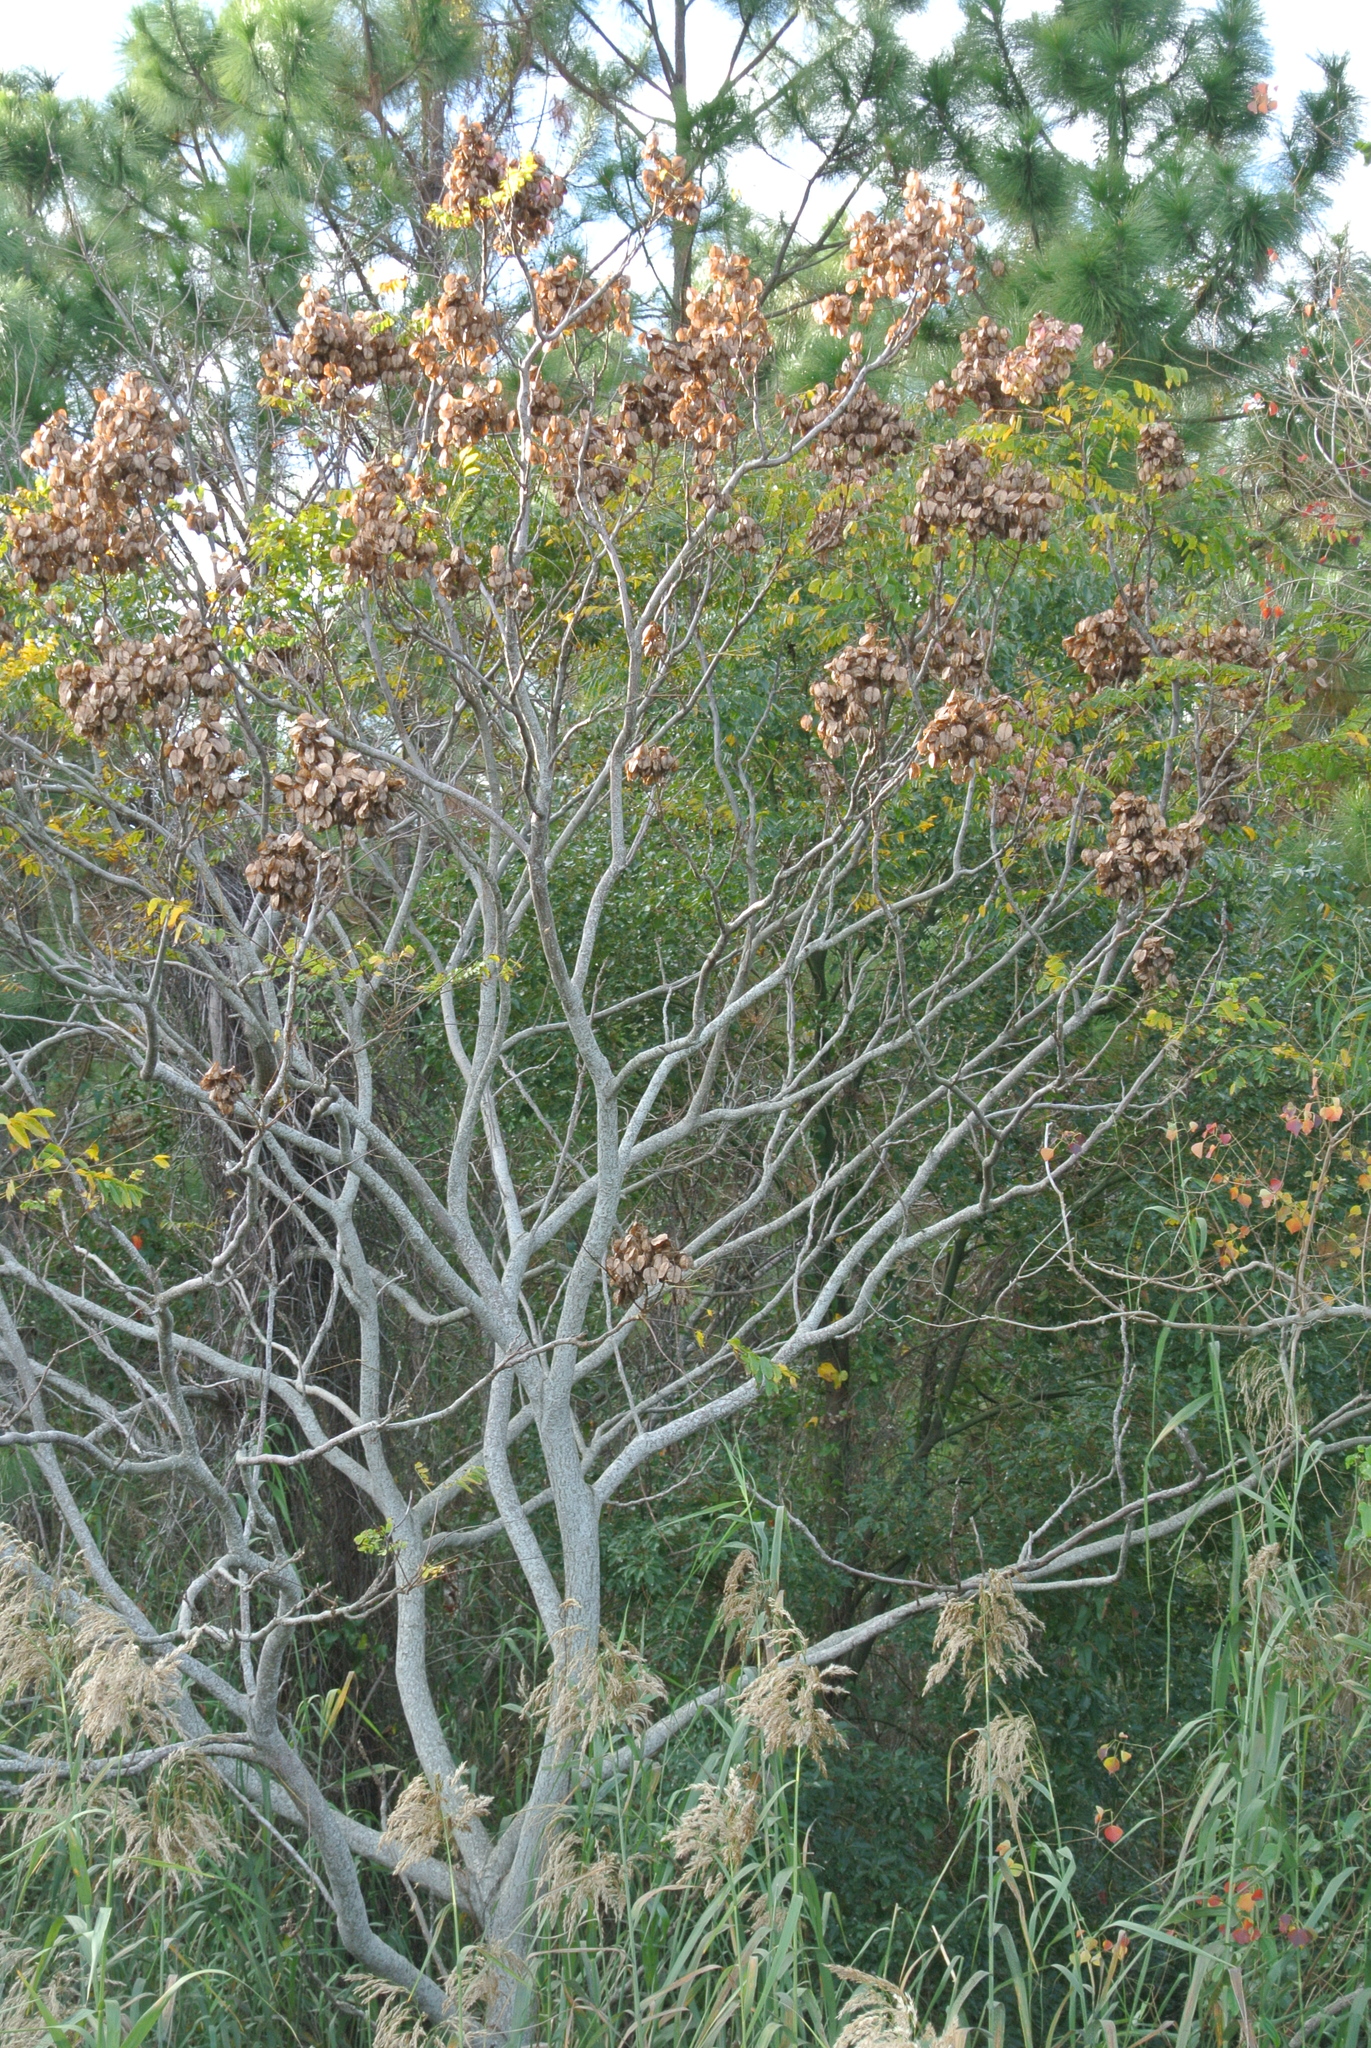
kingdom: Plantae
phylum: Tracheophyta
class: Magnoliopsida
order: Sapindales
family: Sapindaceae
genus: Koelreuteria
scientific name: Koelreuteria bipinnata
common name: Goldenrain tree
